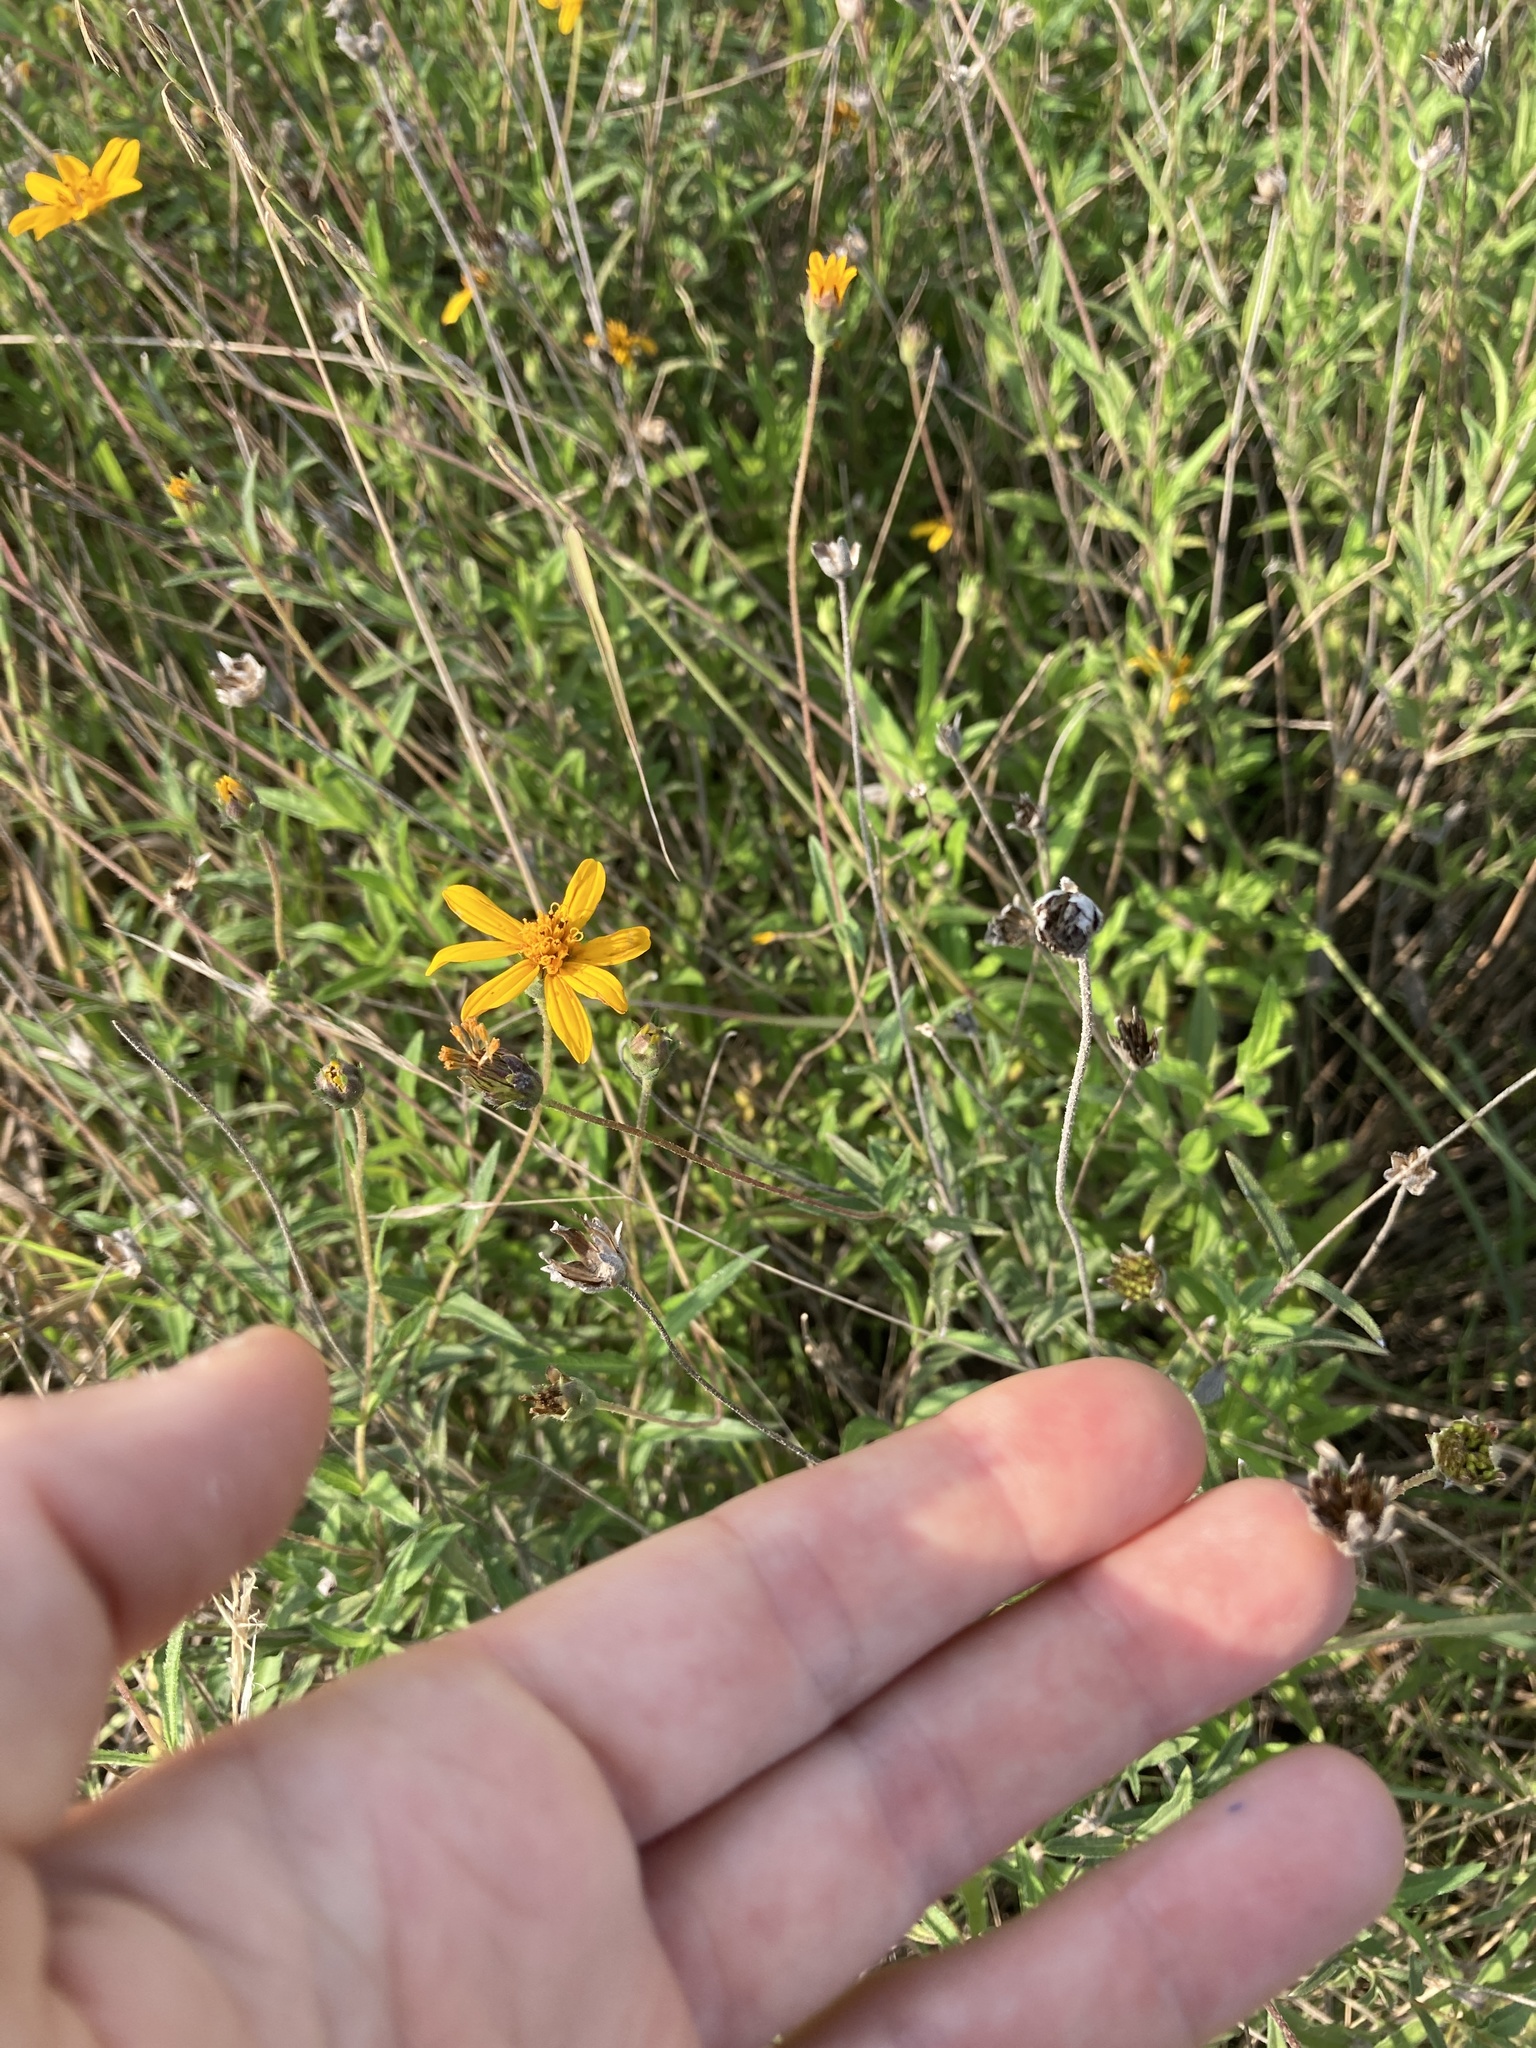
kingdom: Plantae
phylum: Tracheophyta
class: Magnoliopsida
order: Asterales
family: Asteraceae
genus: Wedelia
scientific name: Wedelia acapulcensis
